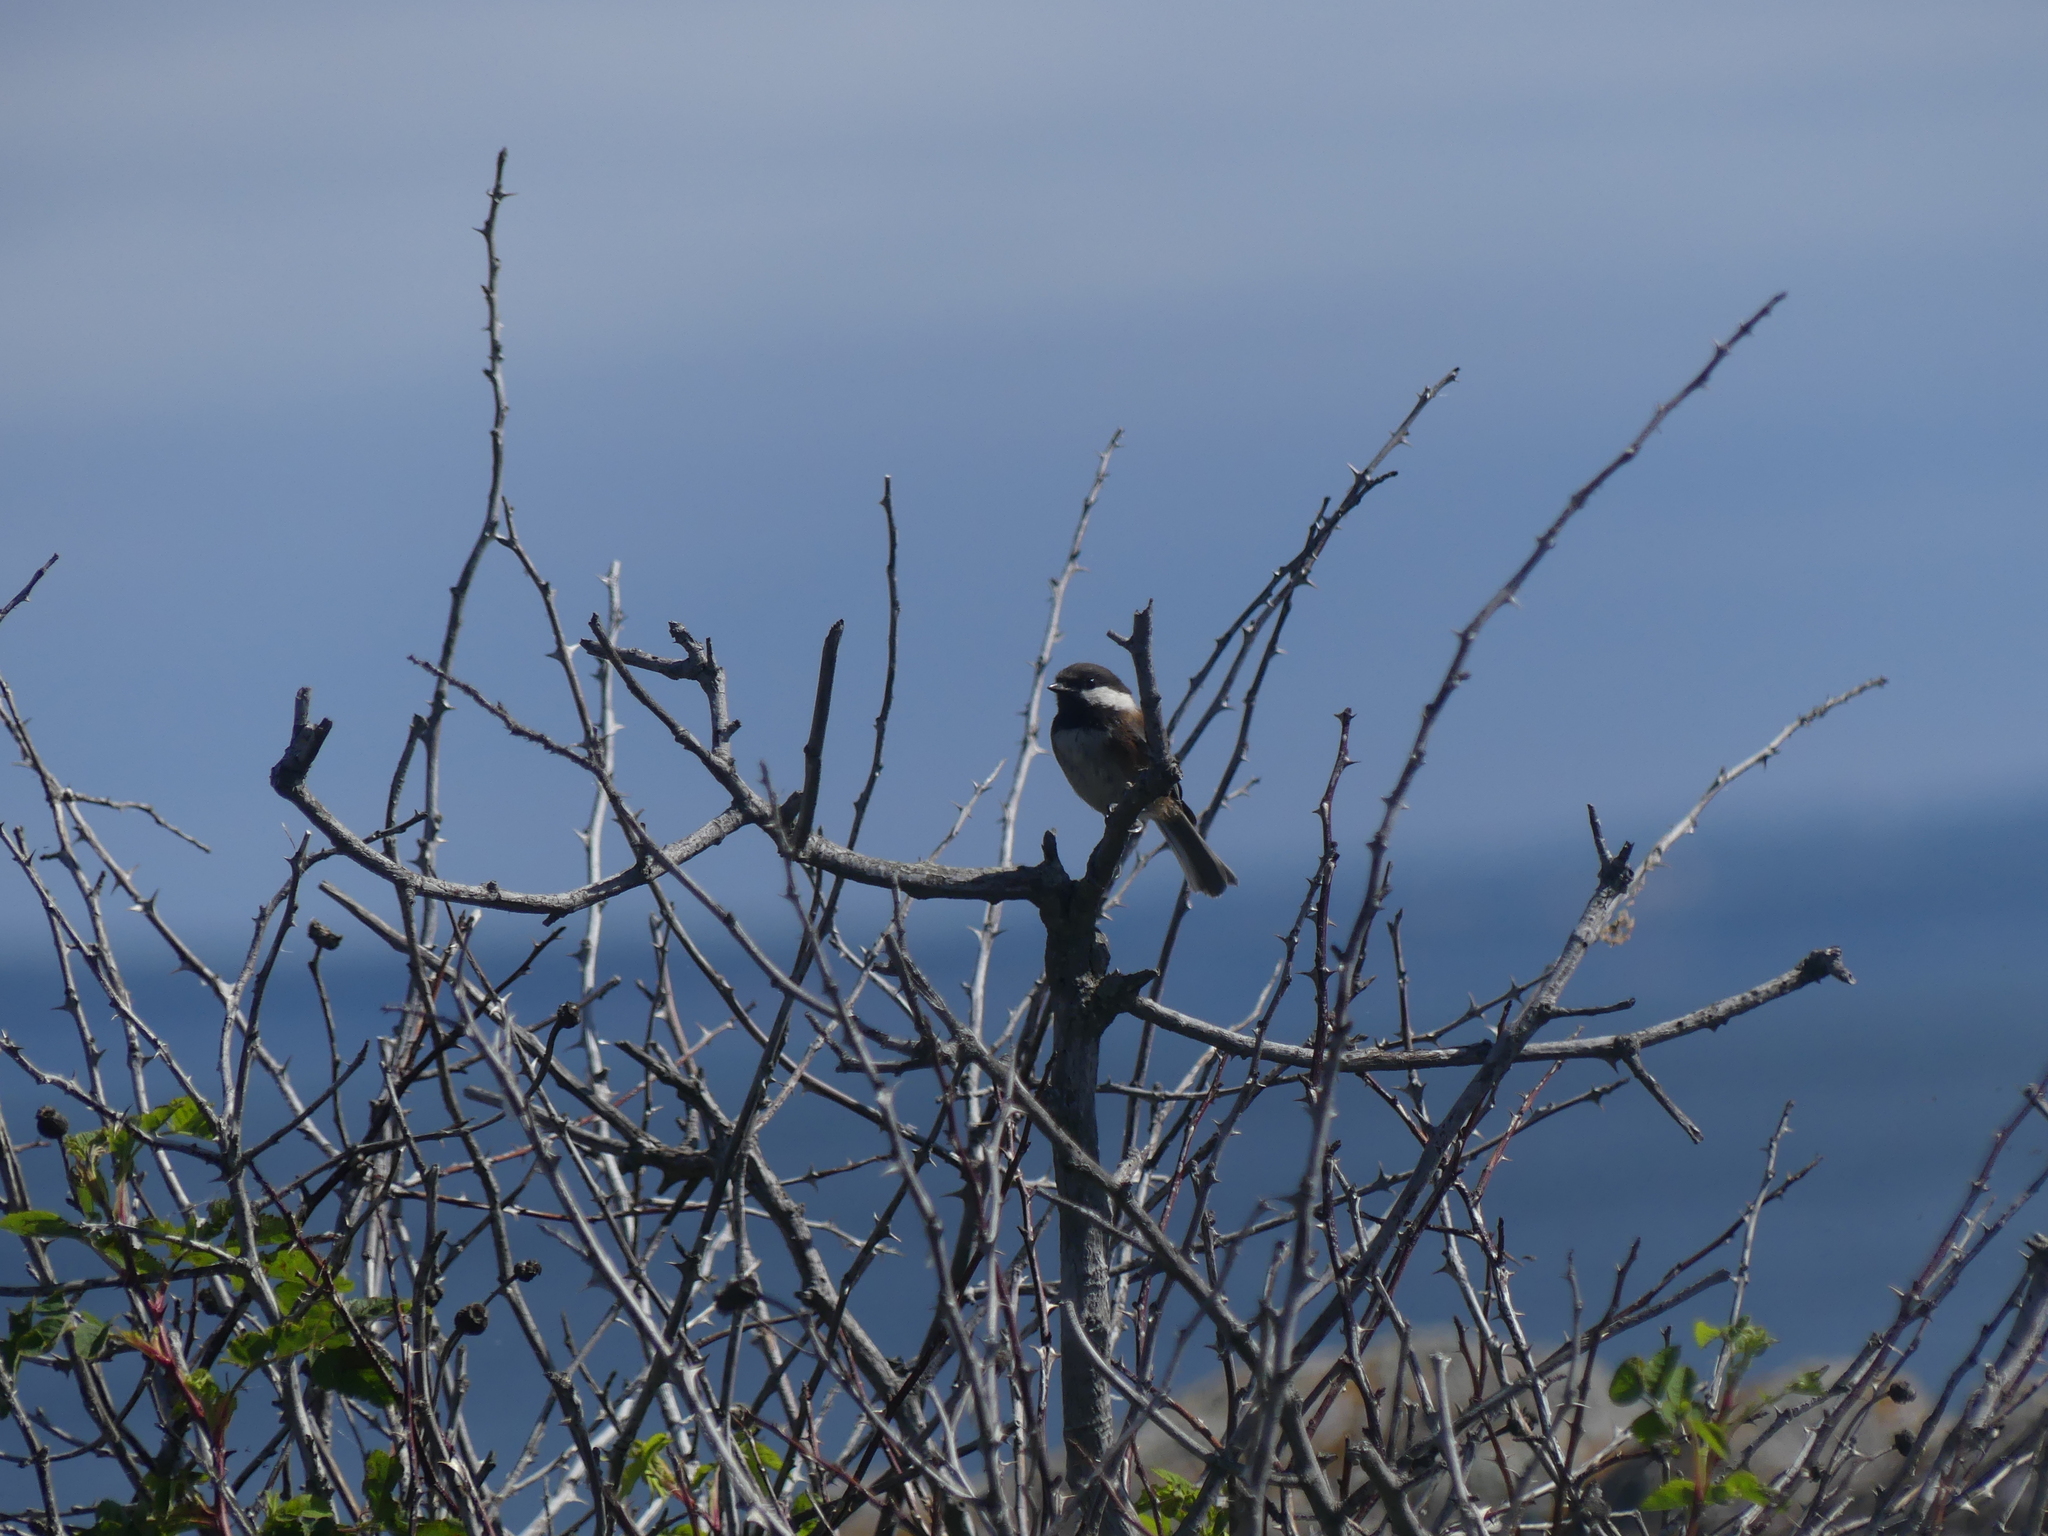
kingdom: Animalia
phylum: Chordata
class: Aves
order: Passeriformes
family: Paridae
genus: Poecile
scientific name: Poecile rufescens
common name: Chestnut-backed chickadee
